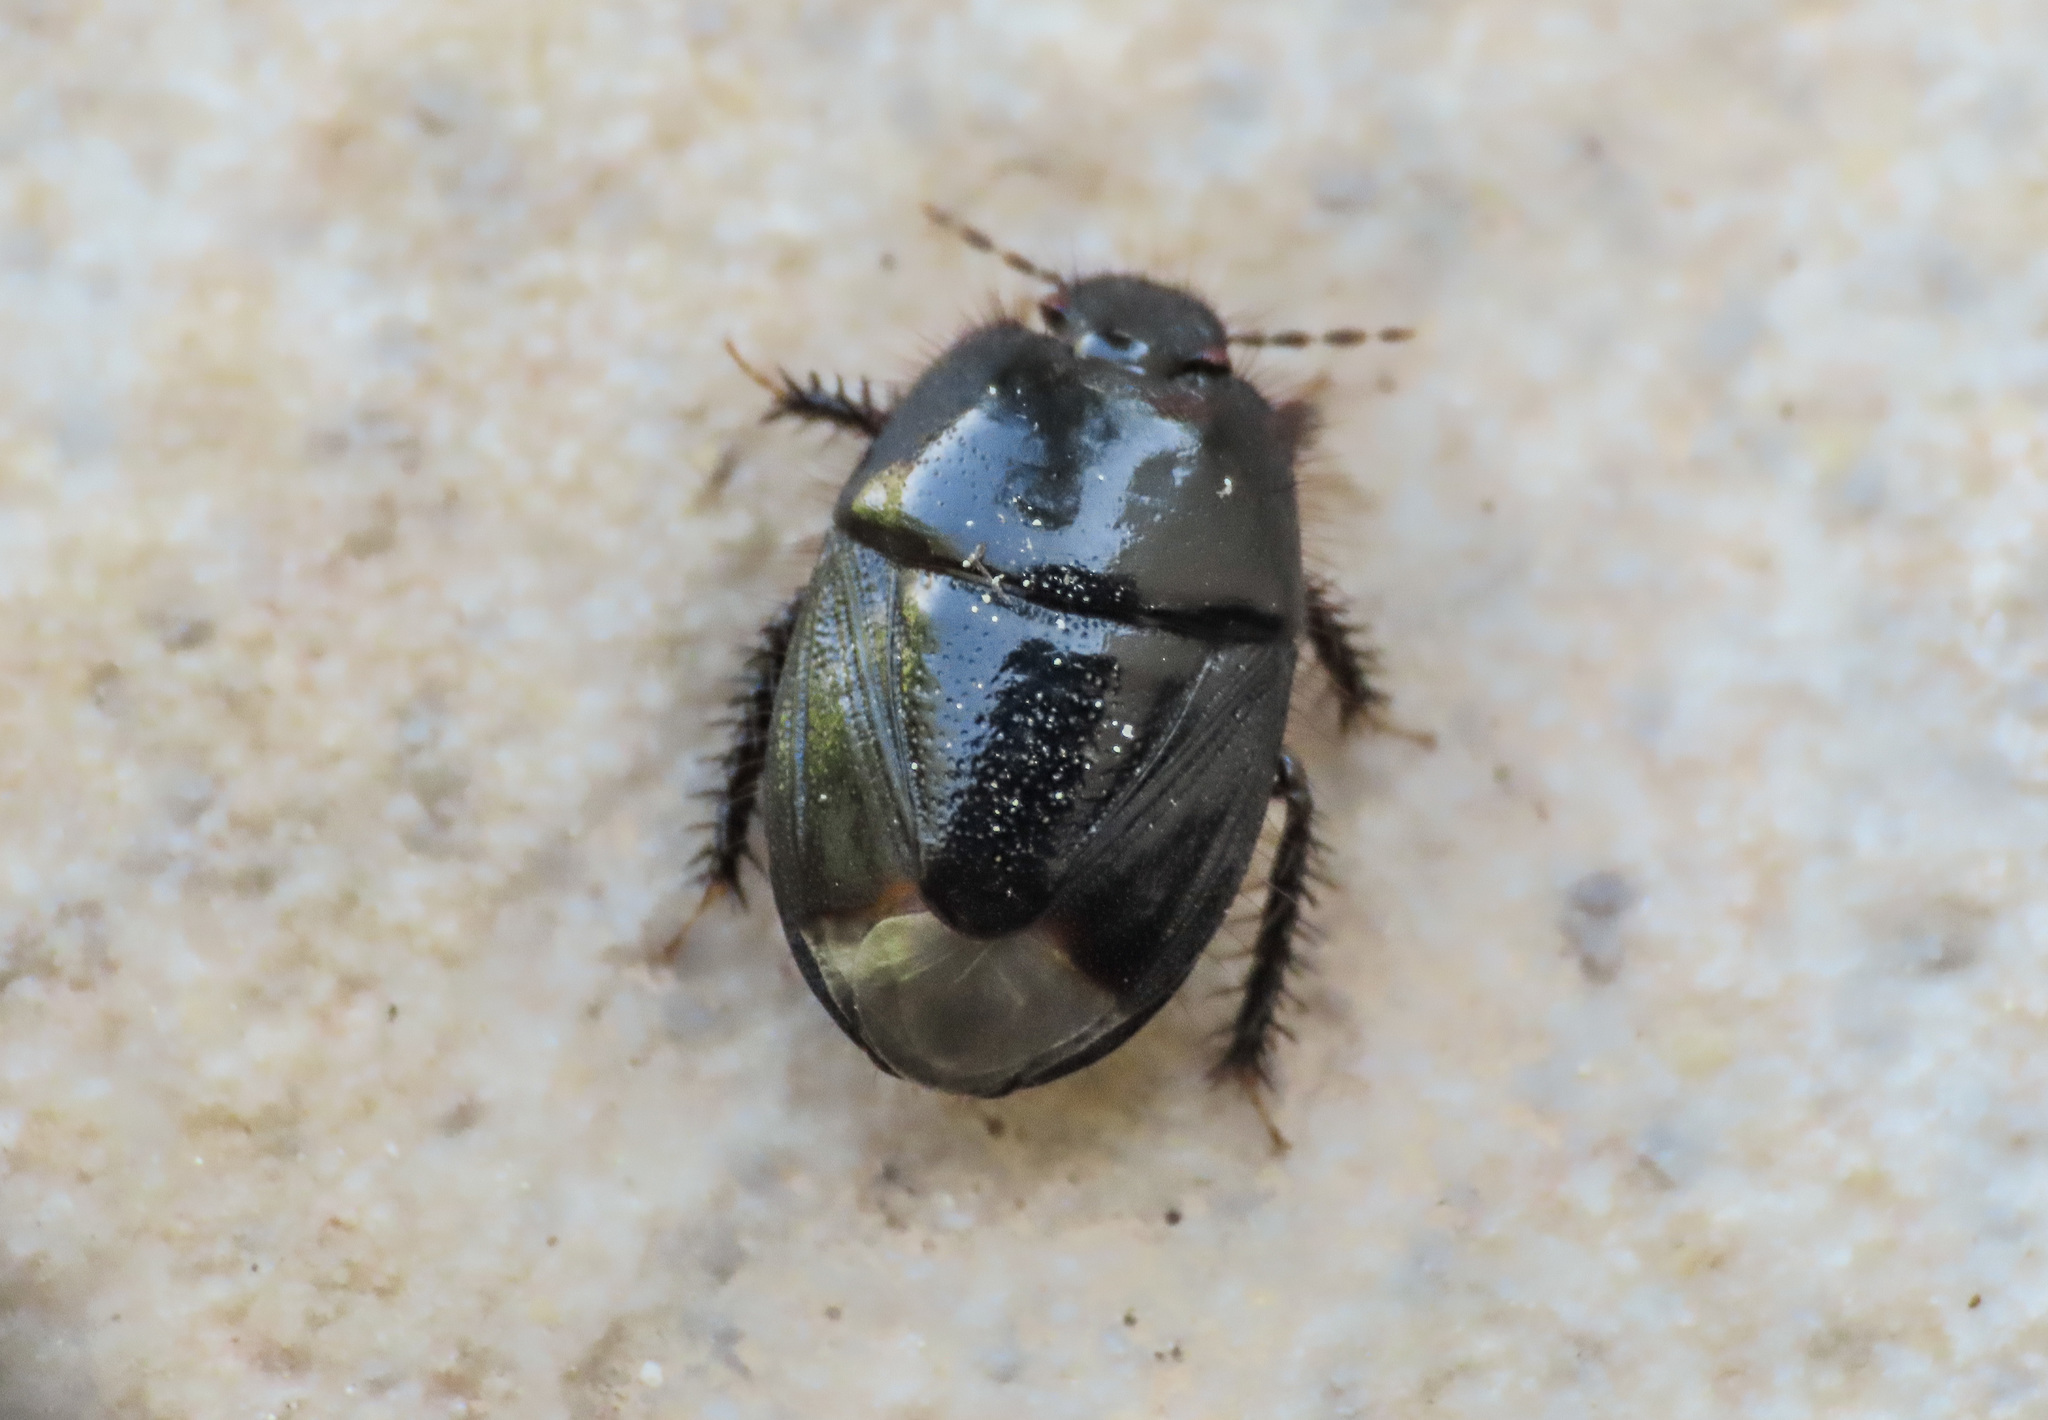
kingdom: Animalia
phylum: Arthropoda
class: Insecta
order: Hemiptera
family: Cydnidae
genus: Aethus
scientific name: Aethus pilosus
